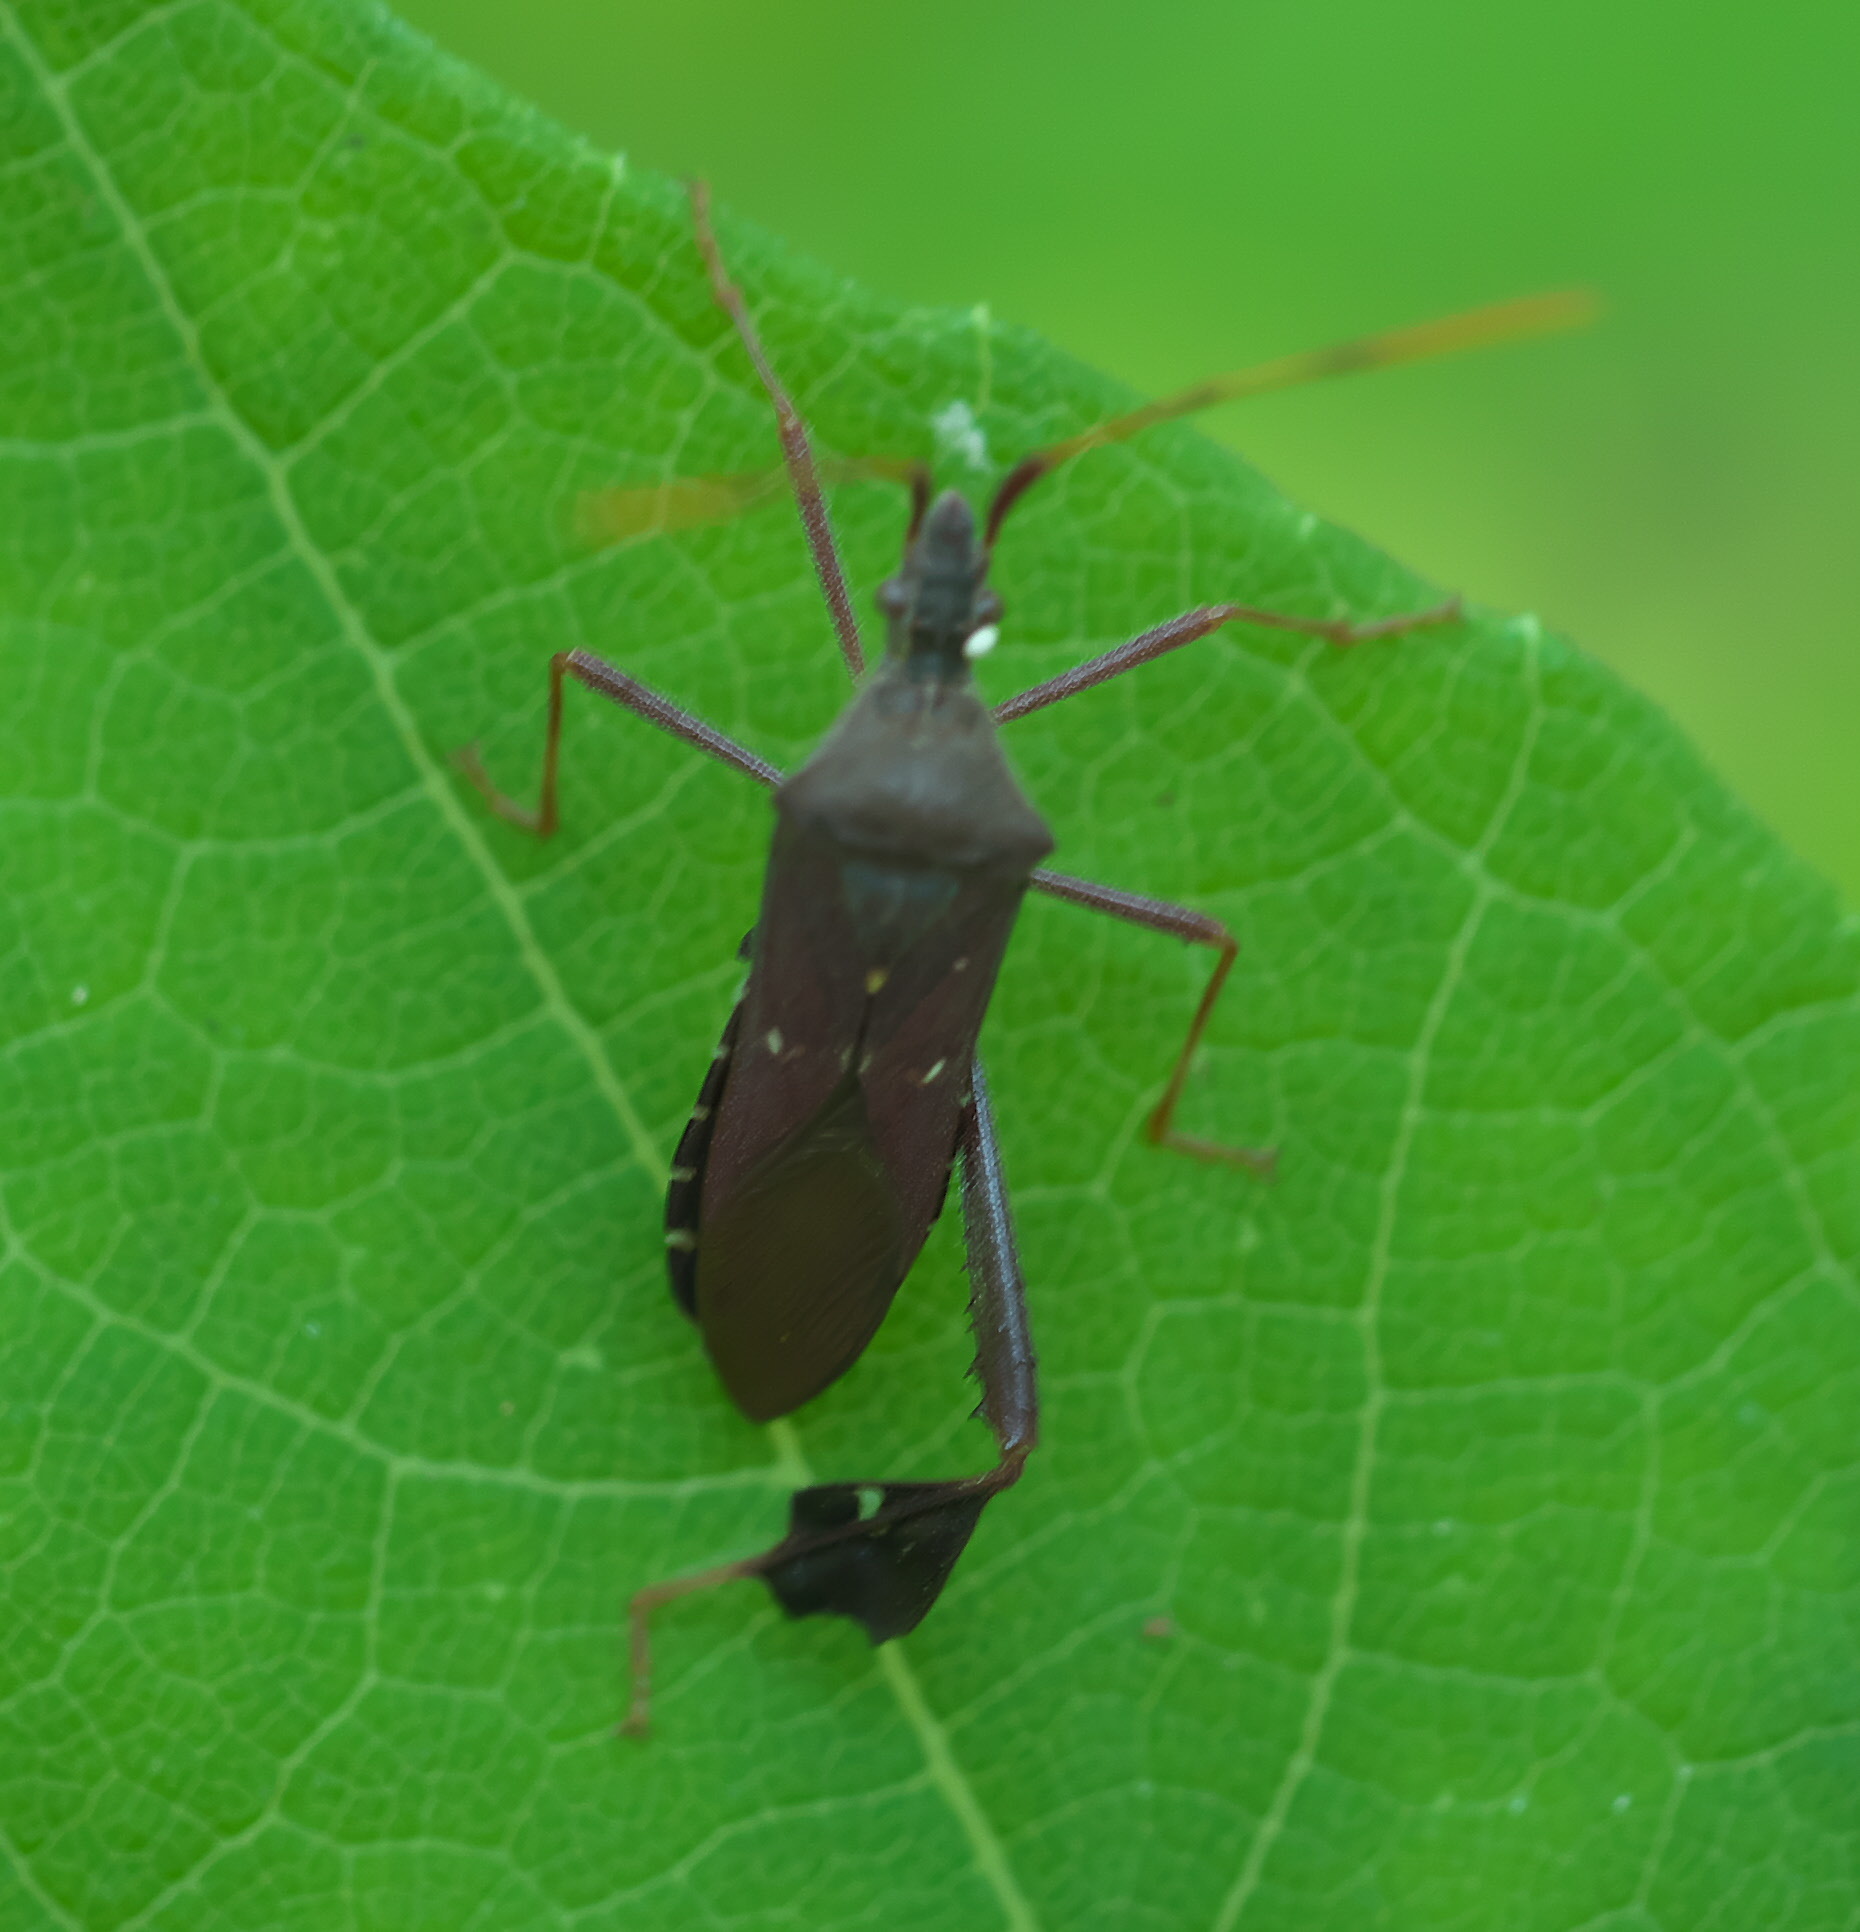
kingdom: Animalia
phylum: Arthropoda
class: Insecta
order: Hemiptera
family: Coreidae
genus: Leptoglossus
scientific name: Leptoglossus oppositus
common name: Northern leaf-footed bug
